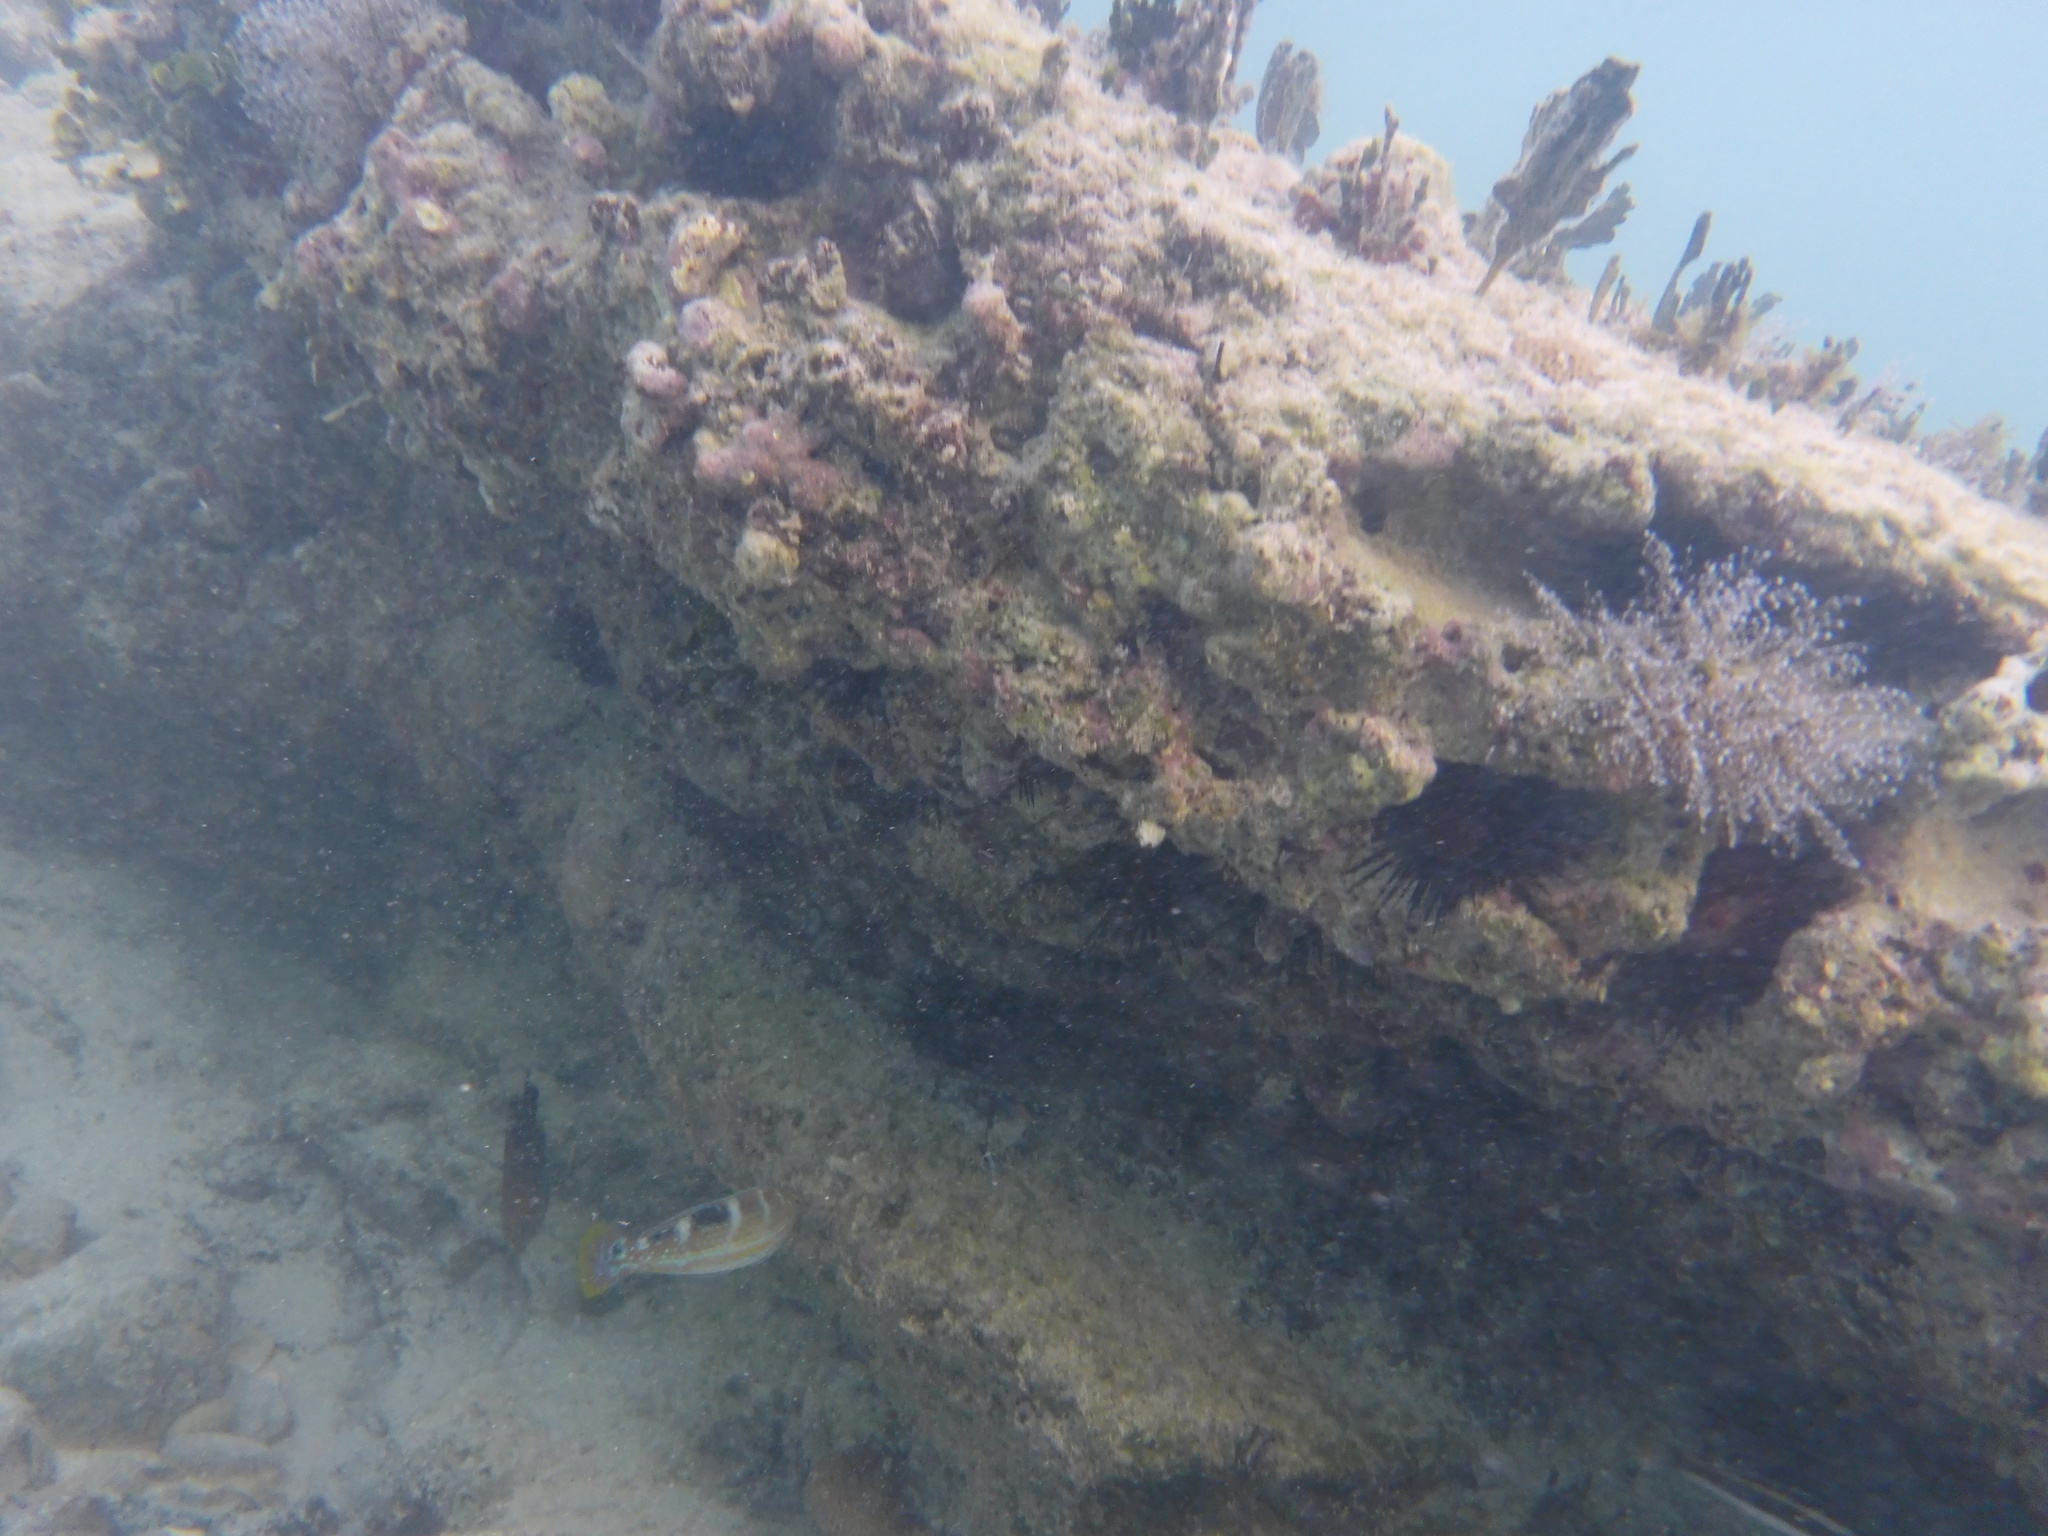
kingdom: Animalia
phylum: Chordata
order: Perciformes
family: Labridae
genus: Halichoeres
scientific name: Halichoeres radiatus
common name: Puddingwife
